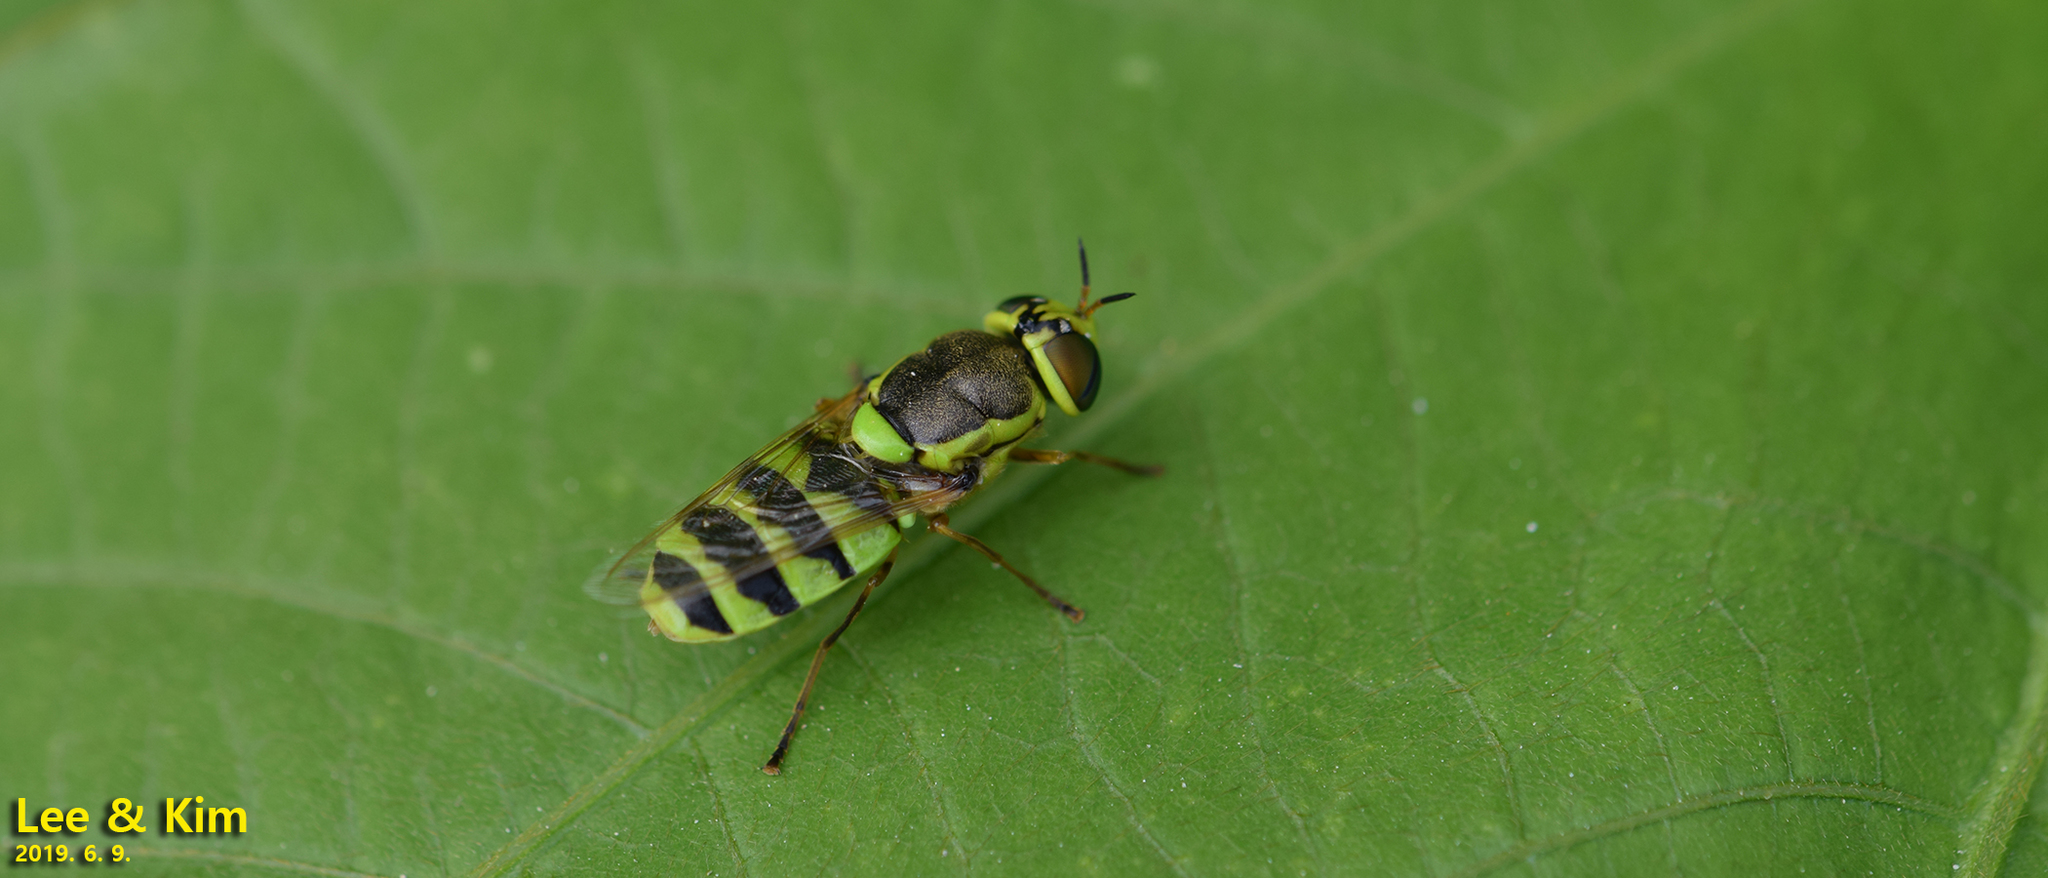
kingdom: Animalia
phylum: Arthropoda
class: Insecta
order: Diptera
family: Stratiomyidae
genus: Odontomyia
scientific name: Odontomyia garatas
